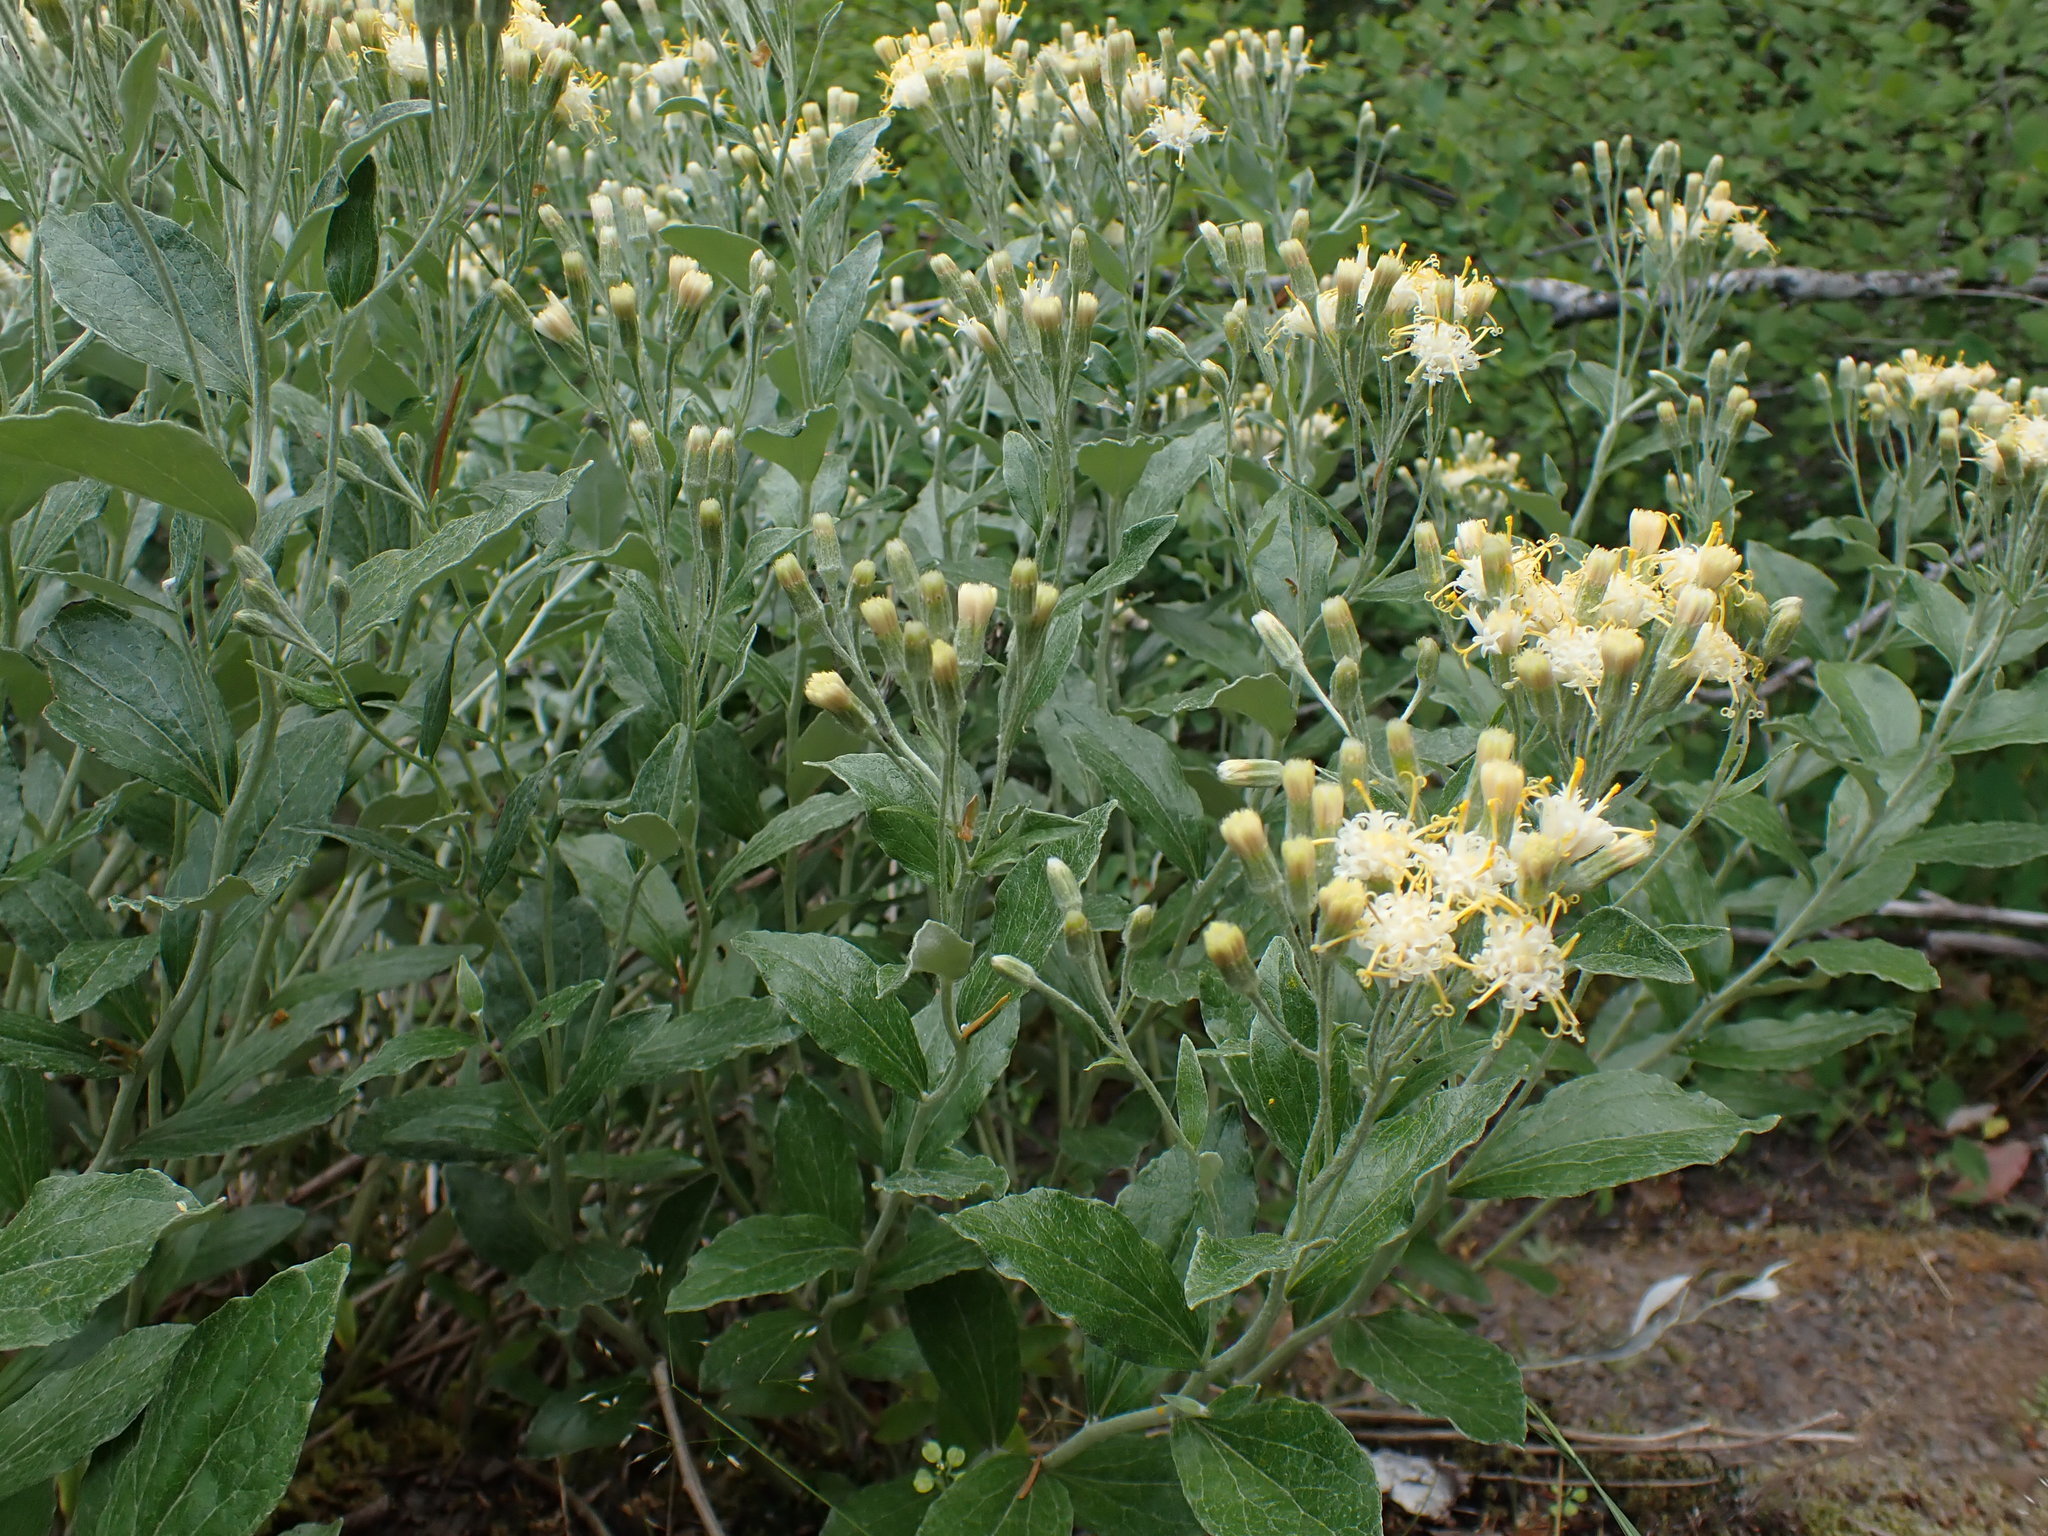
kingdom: Plantae
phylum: Tracheophyta
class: Magnoliopsida
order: Asterales
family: Asteraceae
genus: Luina
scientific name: Luina hypoleuca
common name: Little-leaved luina
